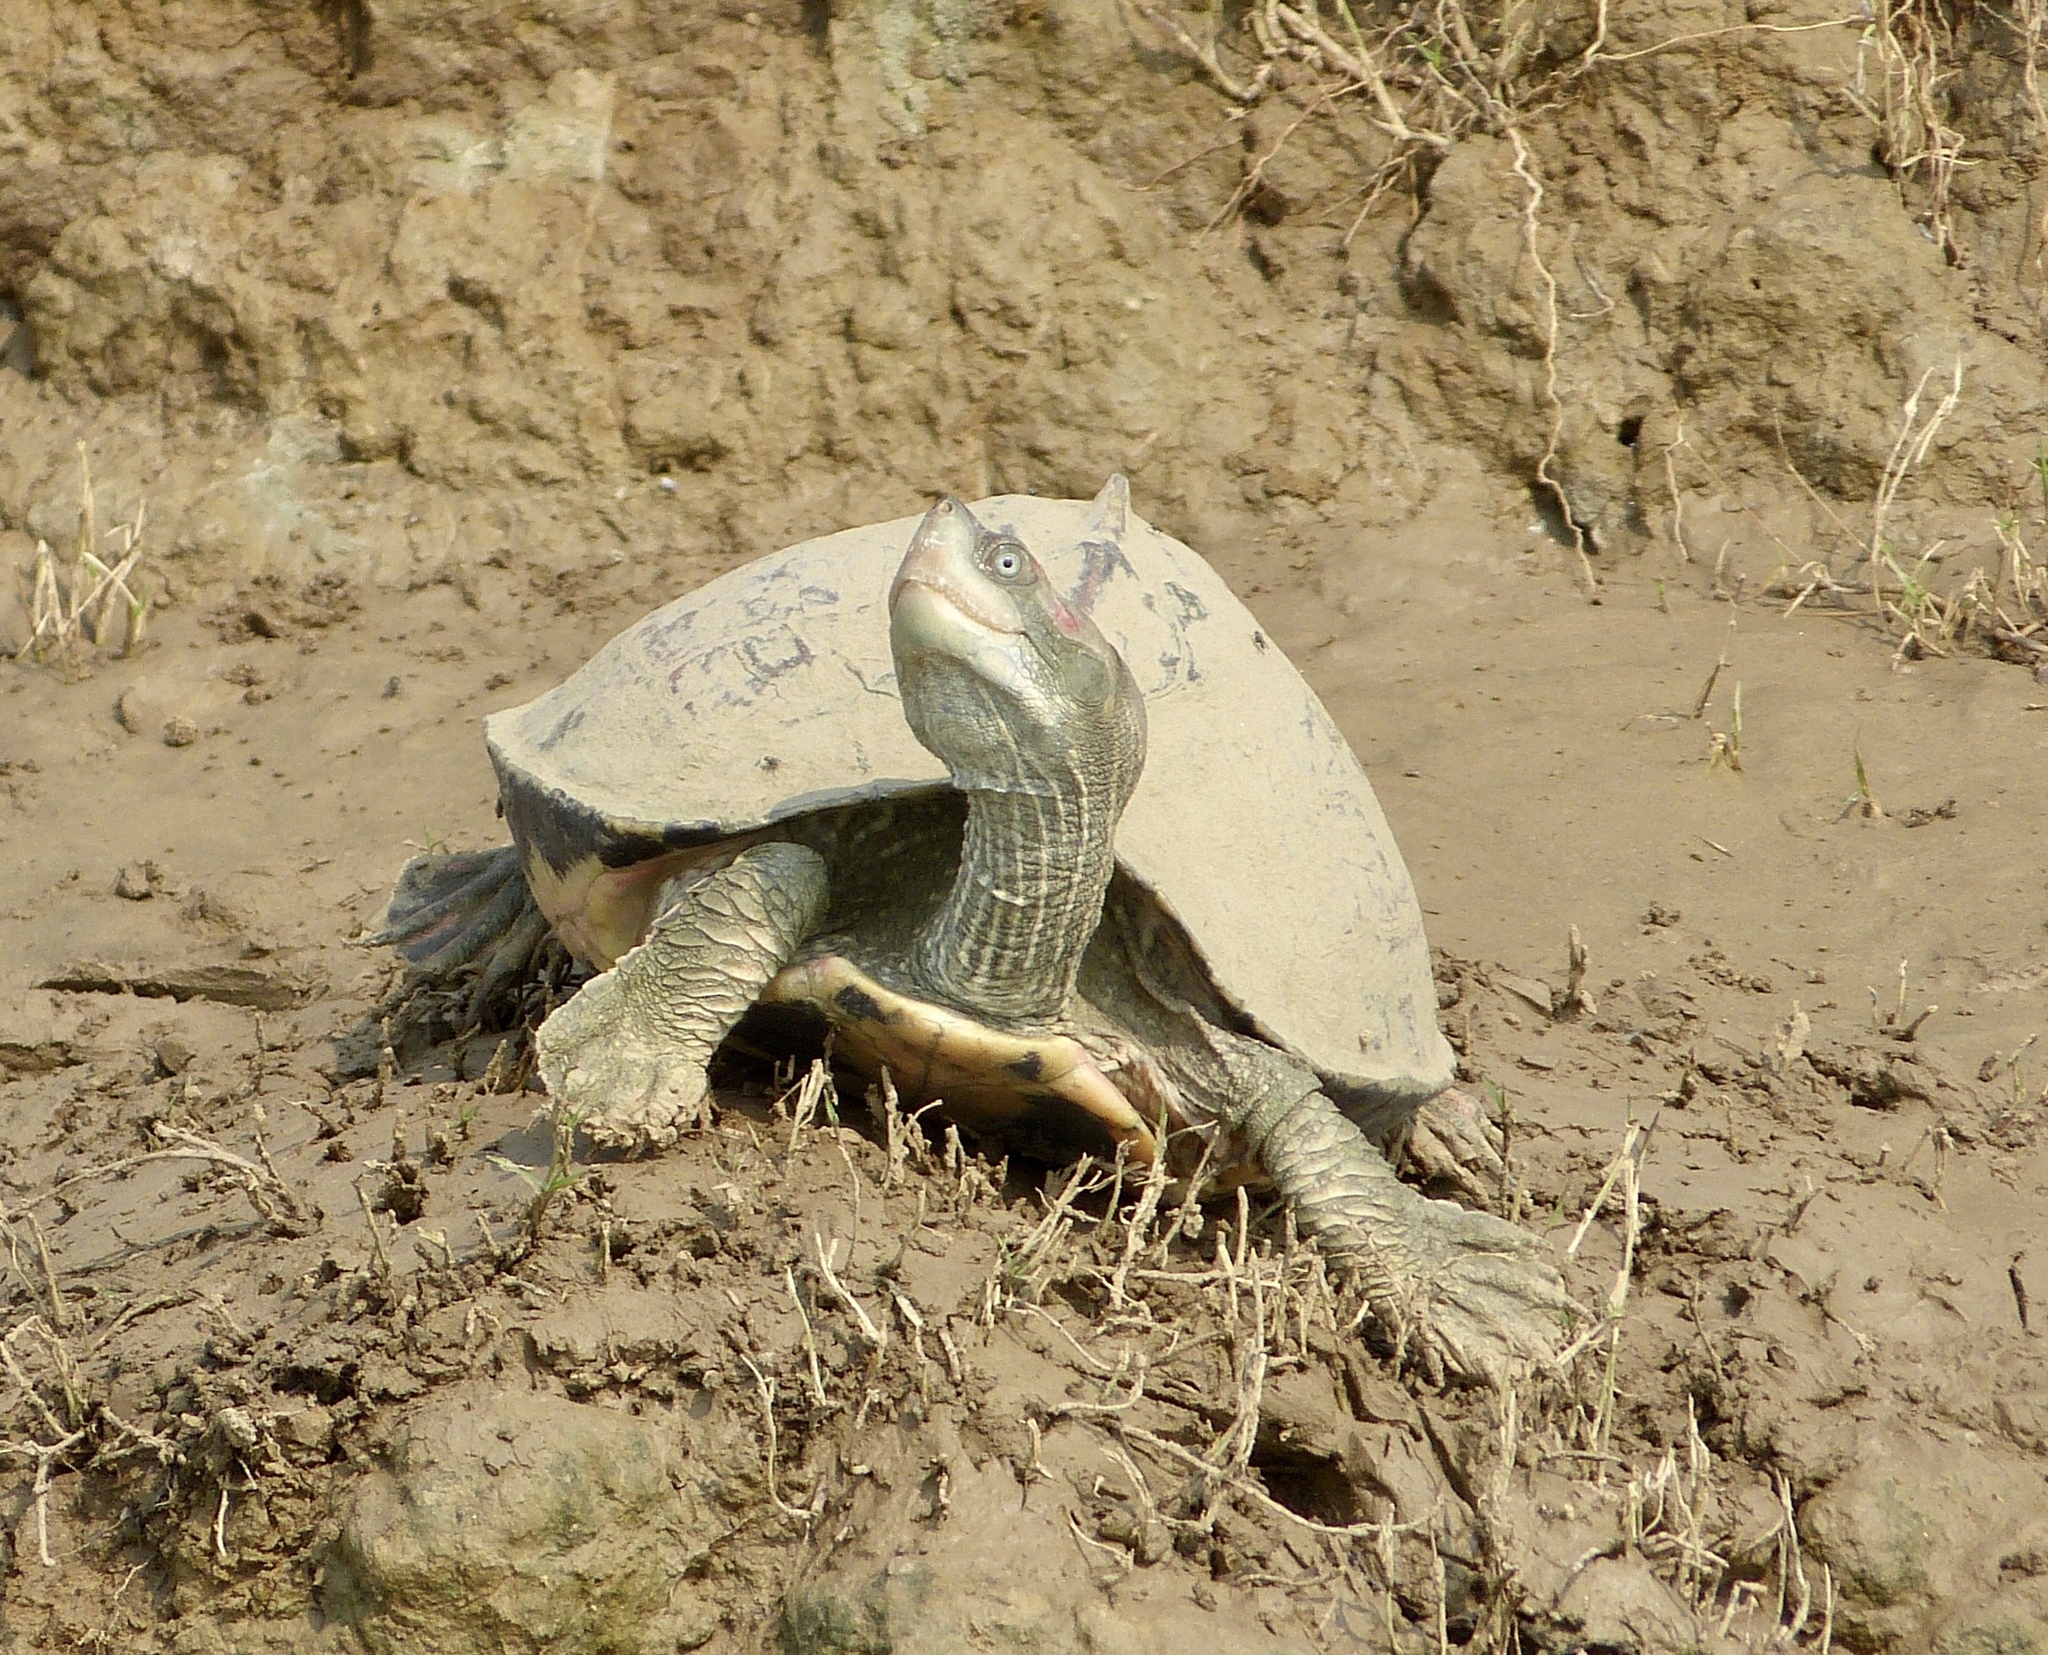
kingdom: Animalia
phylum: Chordata
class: Testudines
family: Geoemydidae
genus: Pangshura
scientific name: Pangshura tentoria
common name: Indian tent turtle
